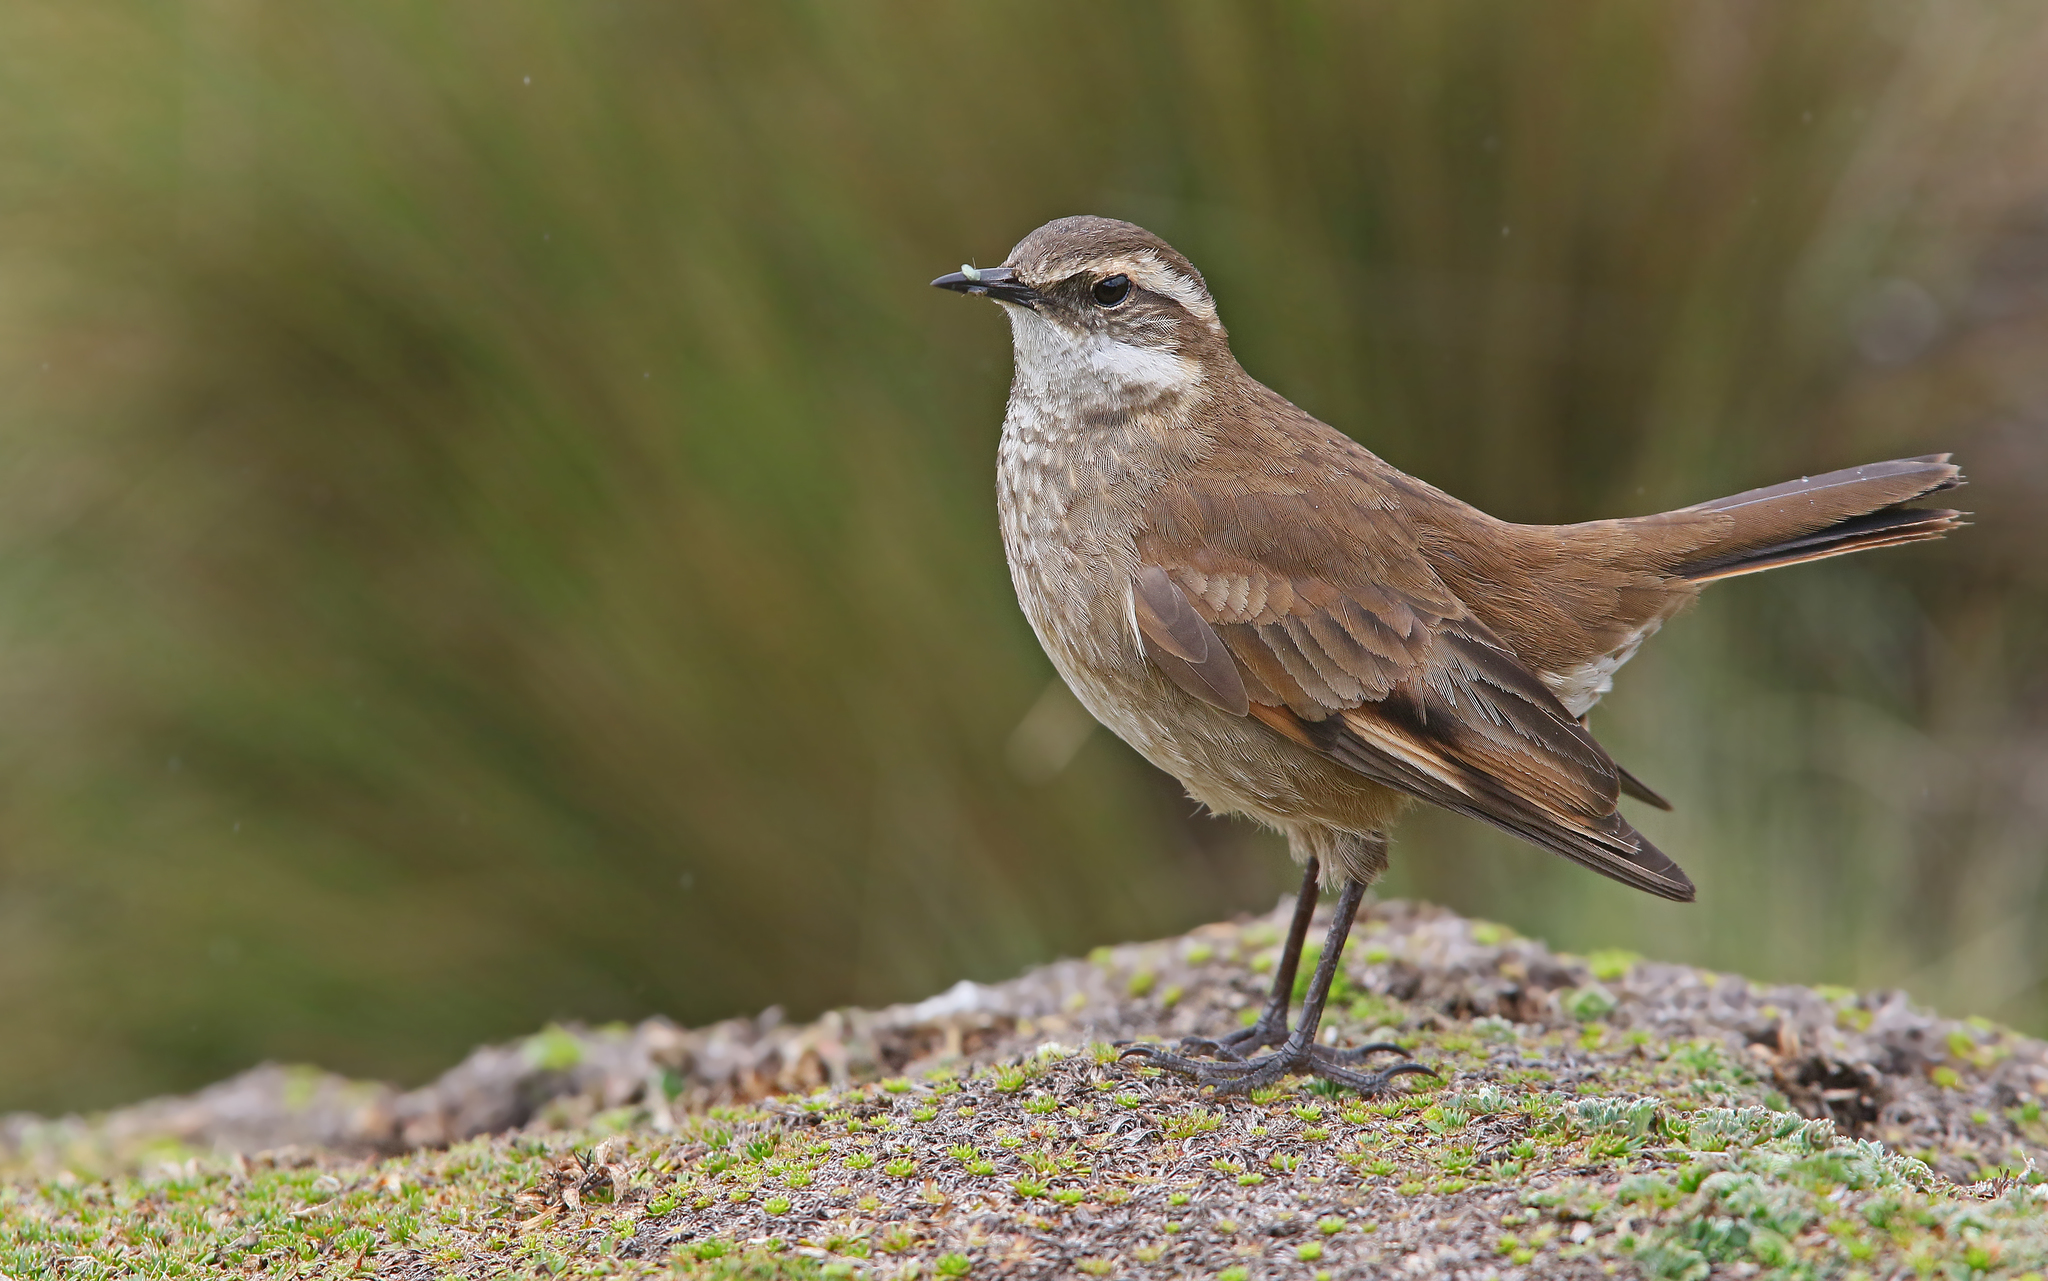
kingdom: Animalia
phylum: Chordata
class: Aves
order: Passeriformes
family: Furnariidae
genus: Cinclodes
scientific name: Cinclodes albidiventris
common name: Chestnut-winged cinclodes
